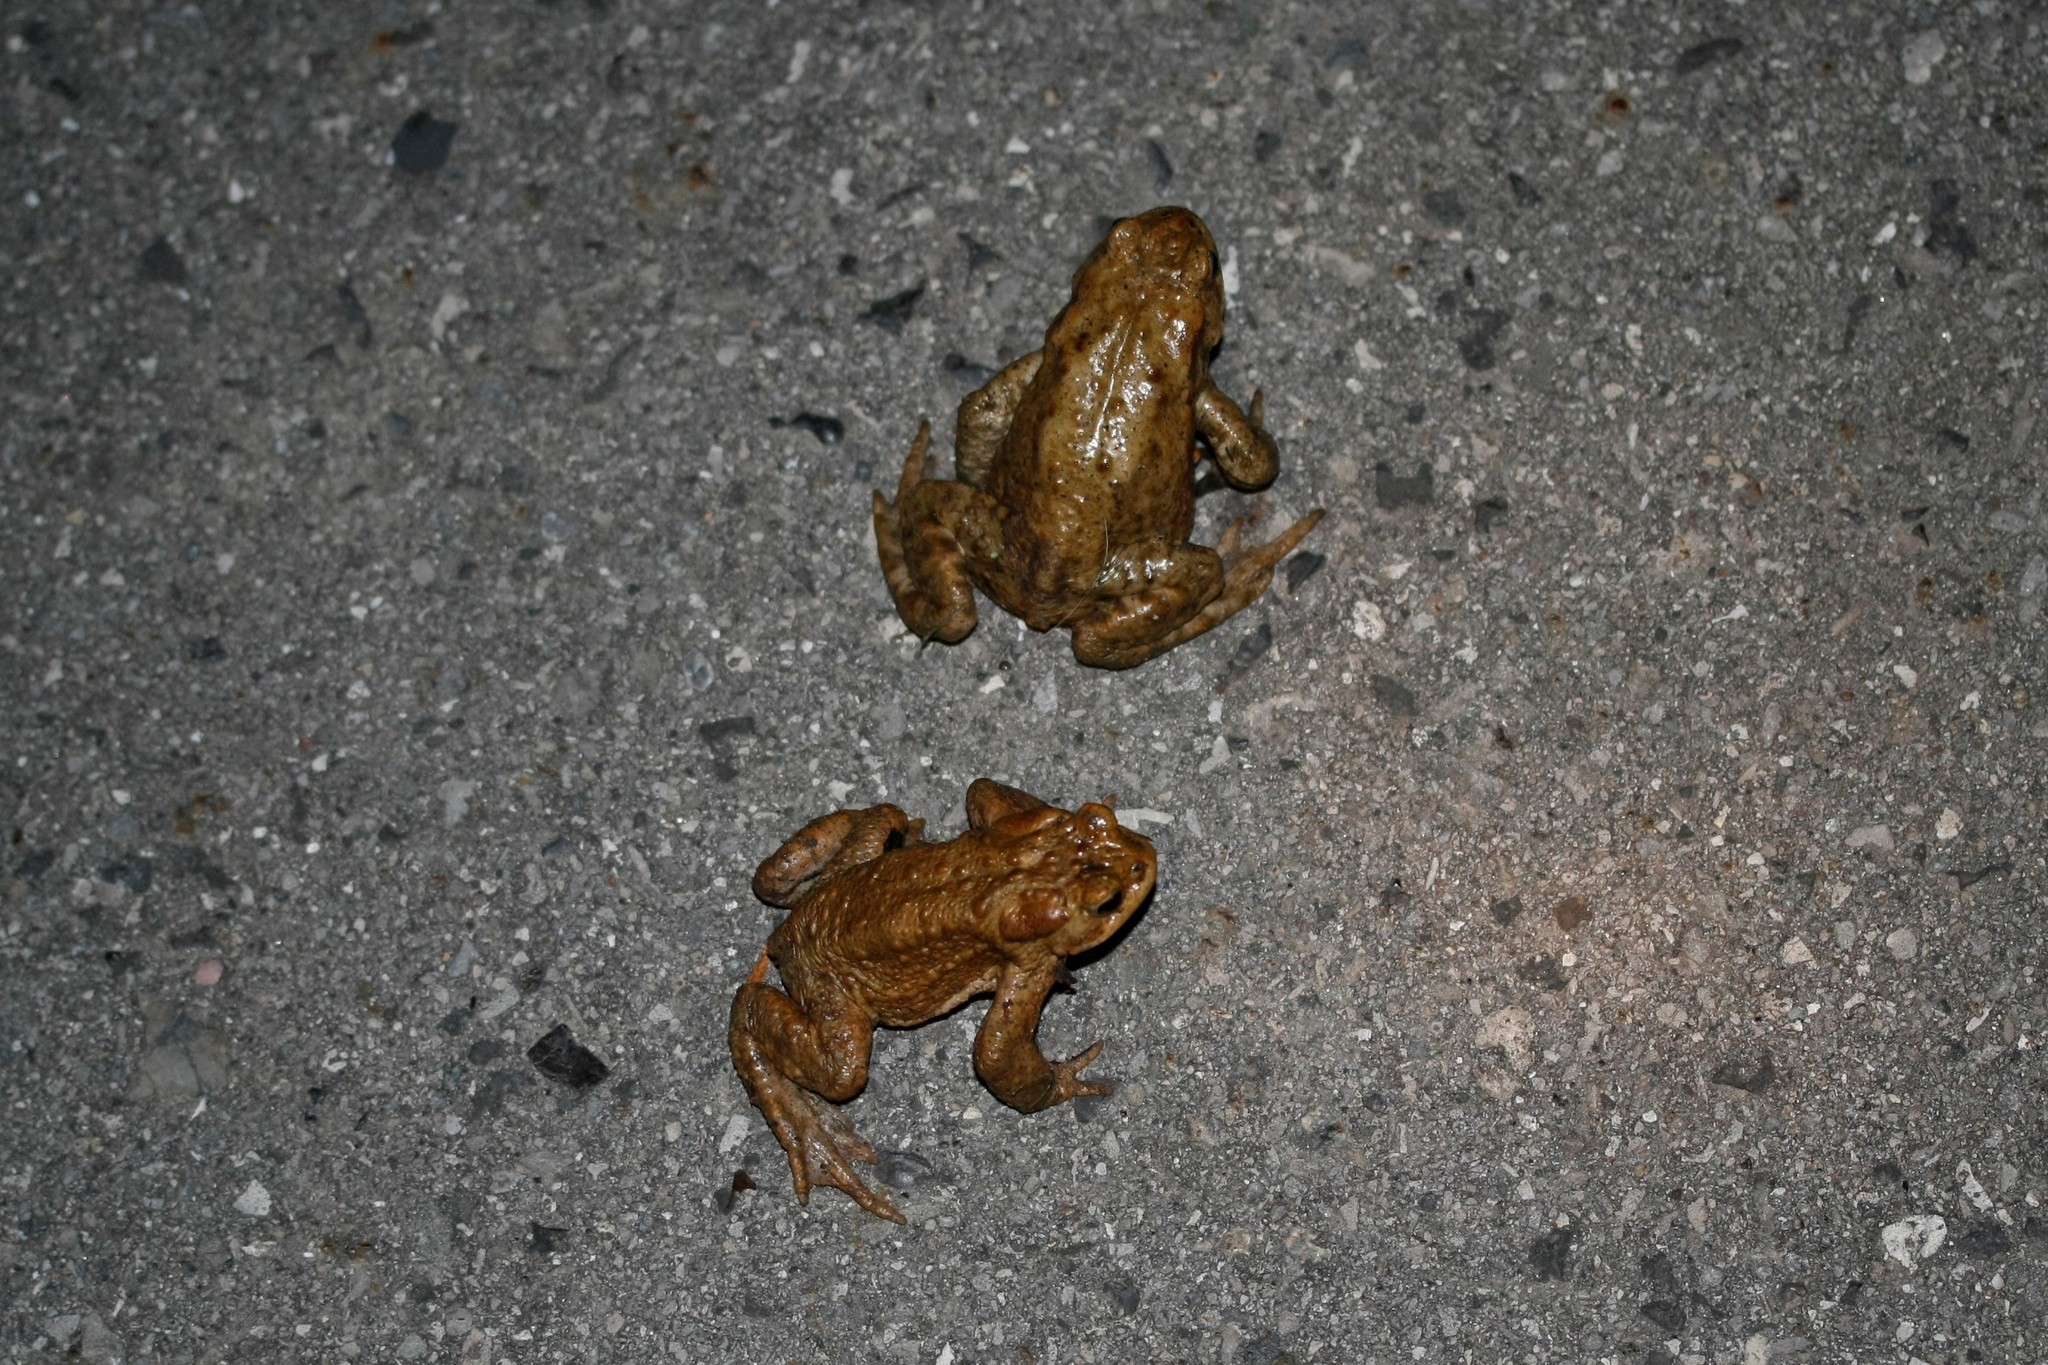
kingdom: Animalia
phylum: Chordata
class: Amphibia
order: Anura
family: Bufonidae
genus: Bufo
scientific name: Bufo bufo
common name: Common toad
